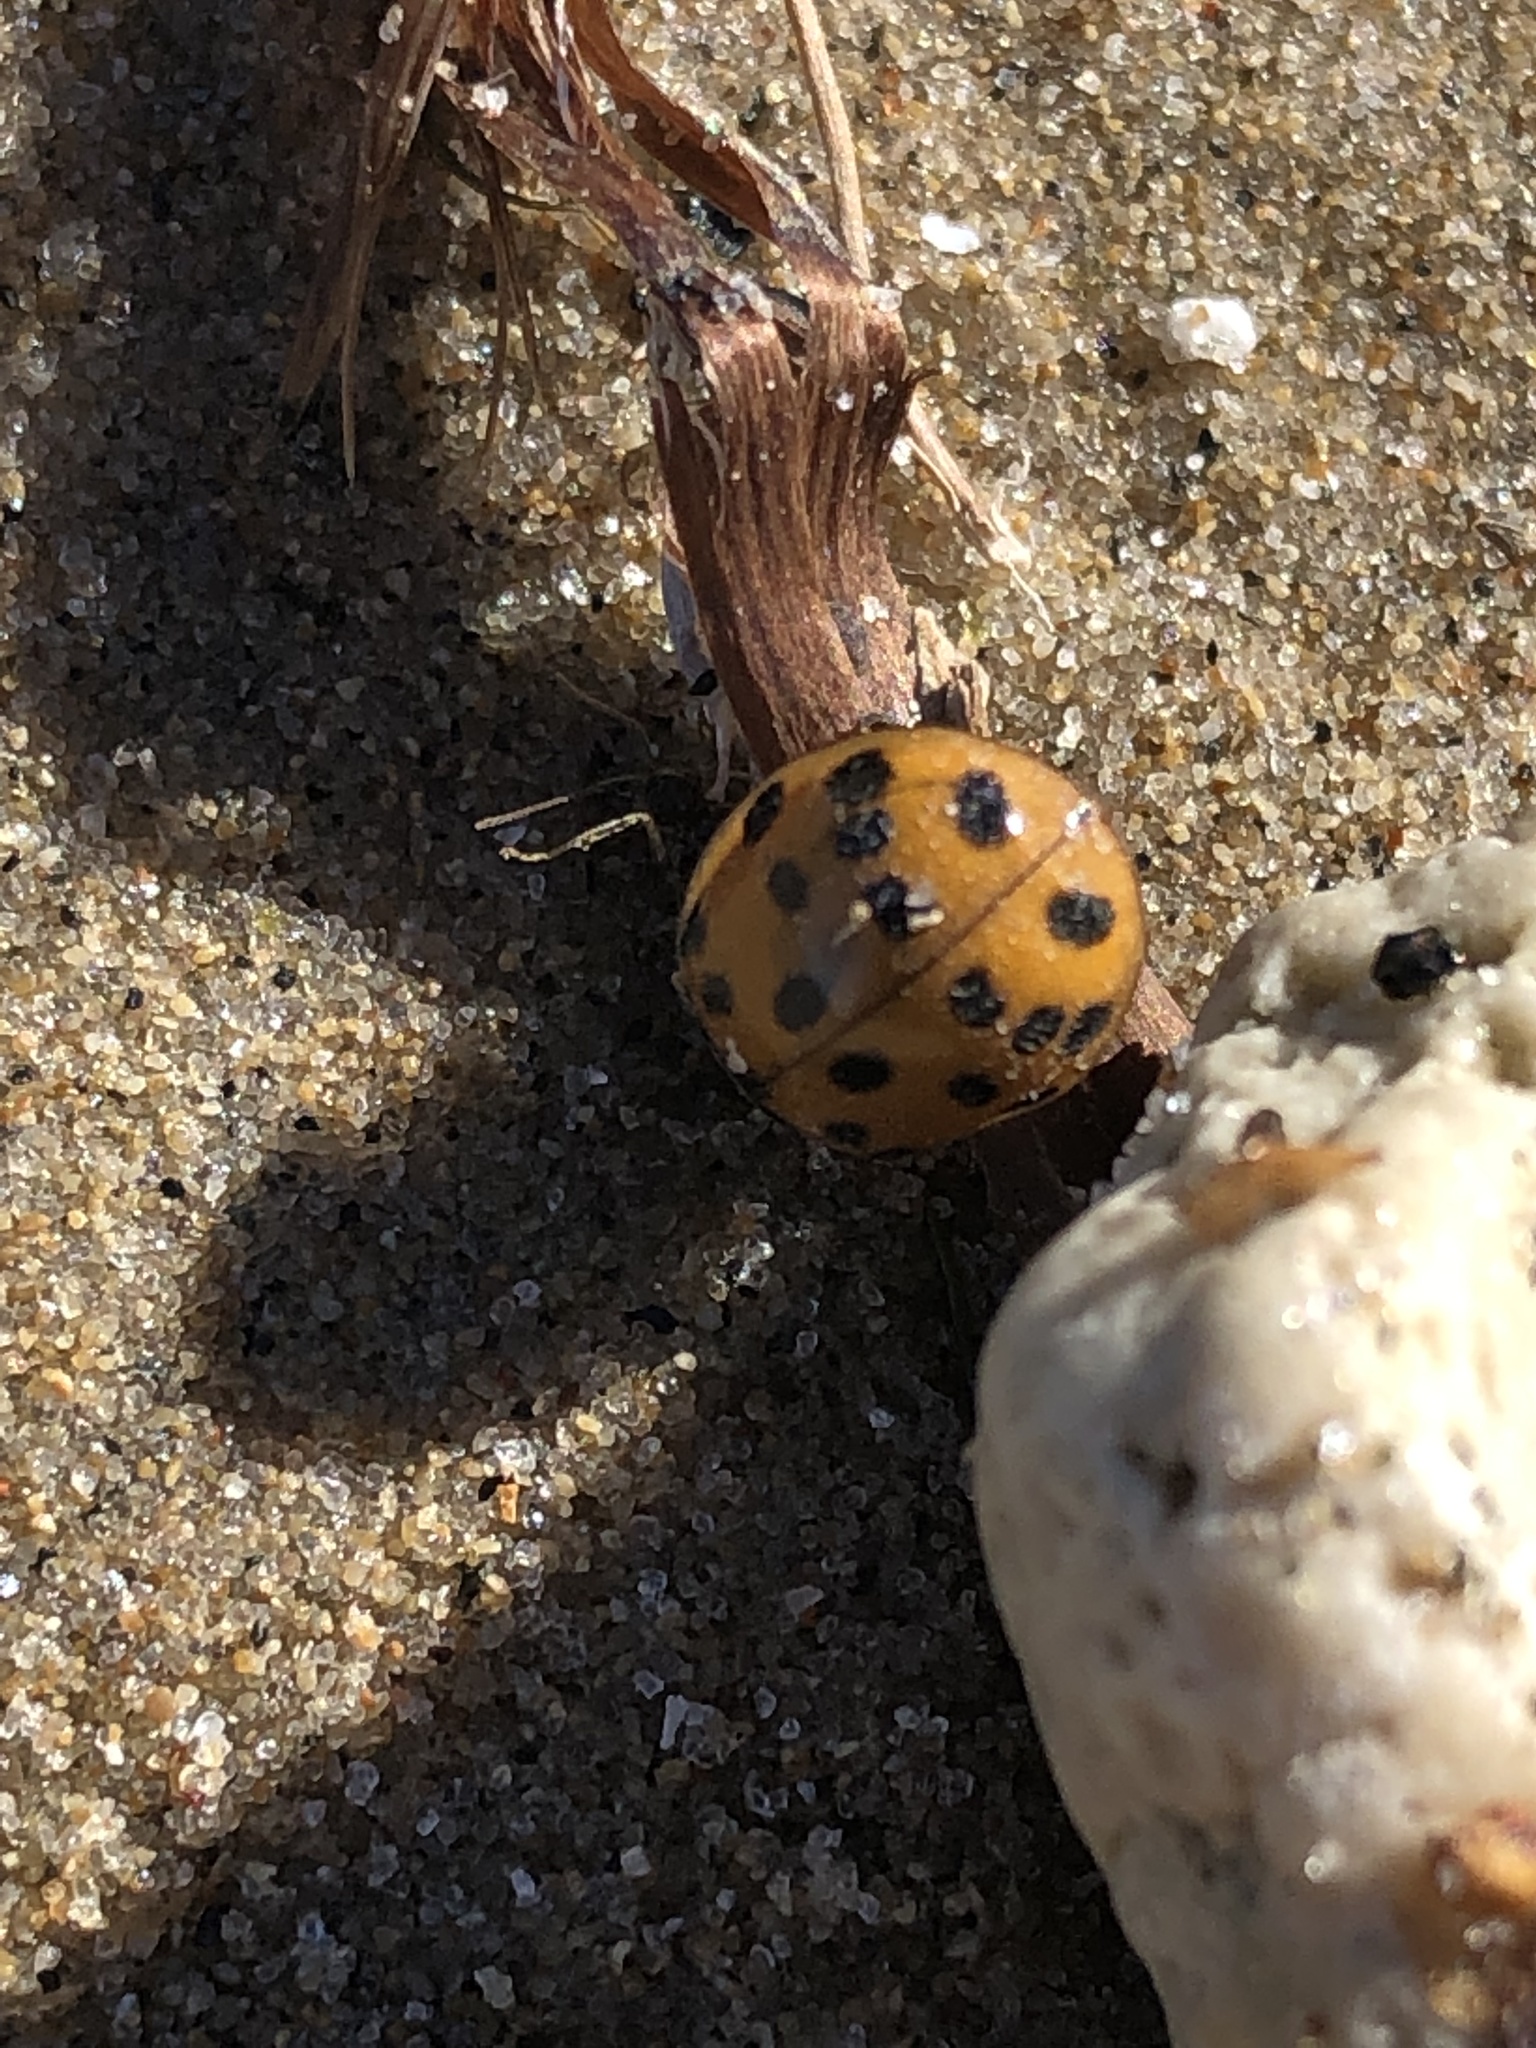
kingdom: Animalia
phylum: Arthropoda
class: Insecta
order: Coleoptera
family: Coccinellidae
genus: Harmonia
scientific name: Harmonia axyridis
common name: Harlequin ladybird
